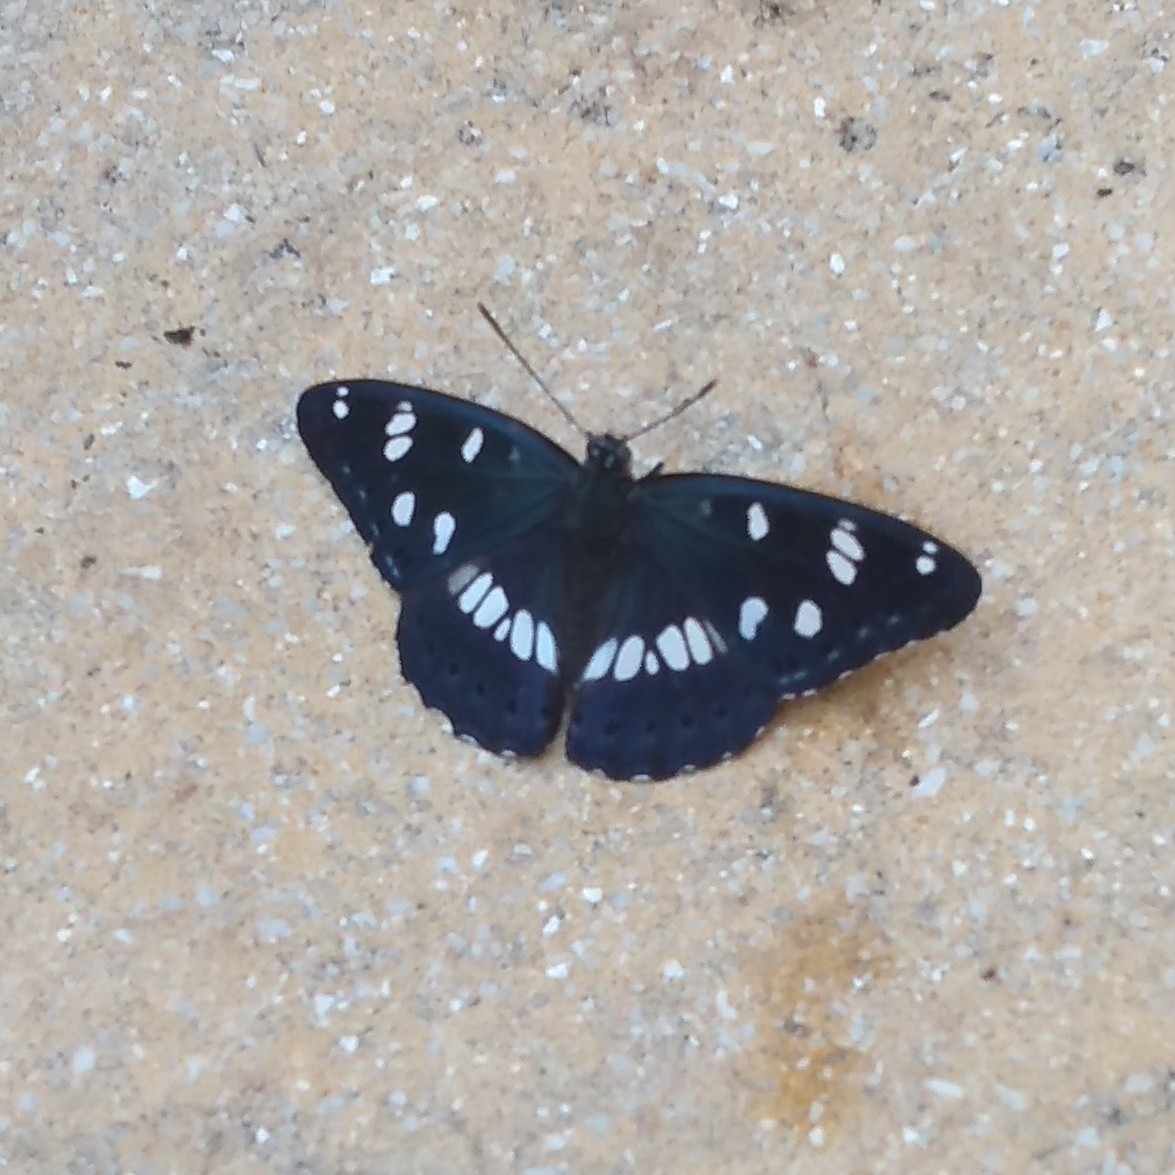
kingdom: Animalia
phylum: Arthropoda
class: Insecta
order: Lepidoptera
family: Nymphalidae
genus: Limenitis
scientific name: Limenitis reducta
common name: Southern white admiral
